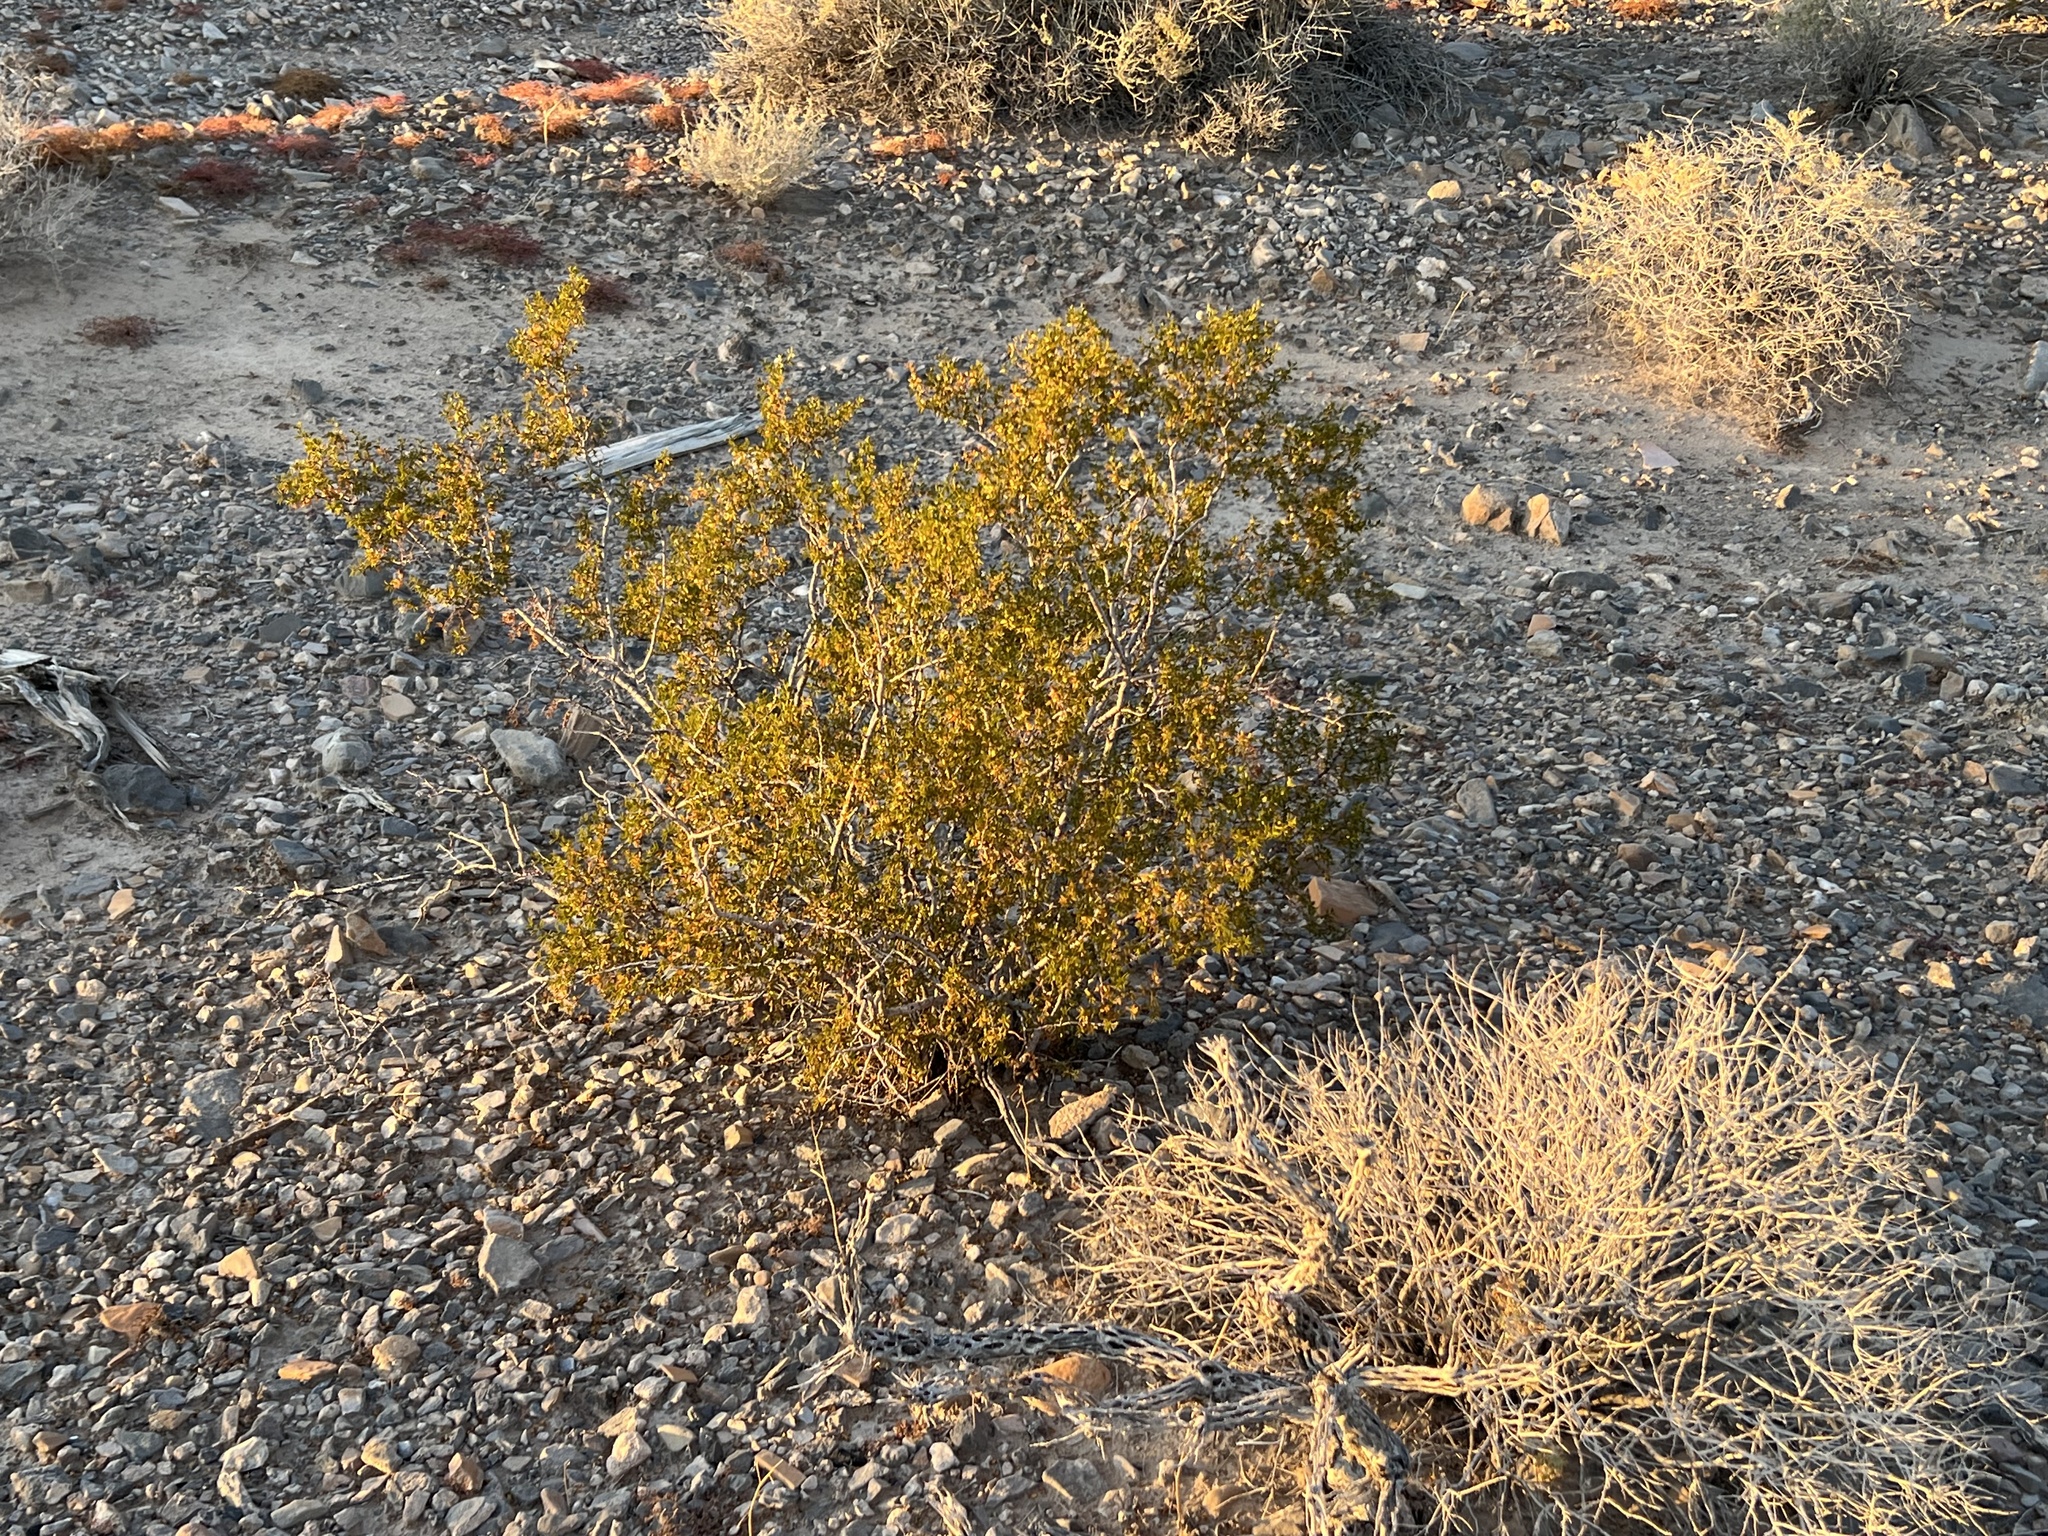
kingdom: Plantae
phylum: Tracheophyta
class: Magnoliopsida
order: Zygophyllales
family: Zygophyllaceae
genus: Larrea
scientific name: Larrea tridentata
